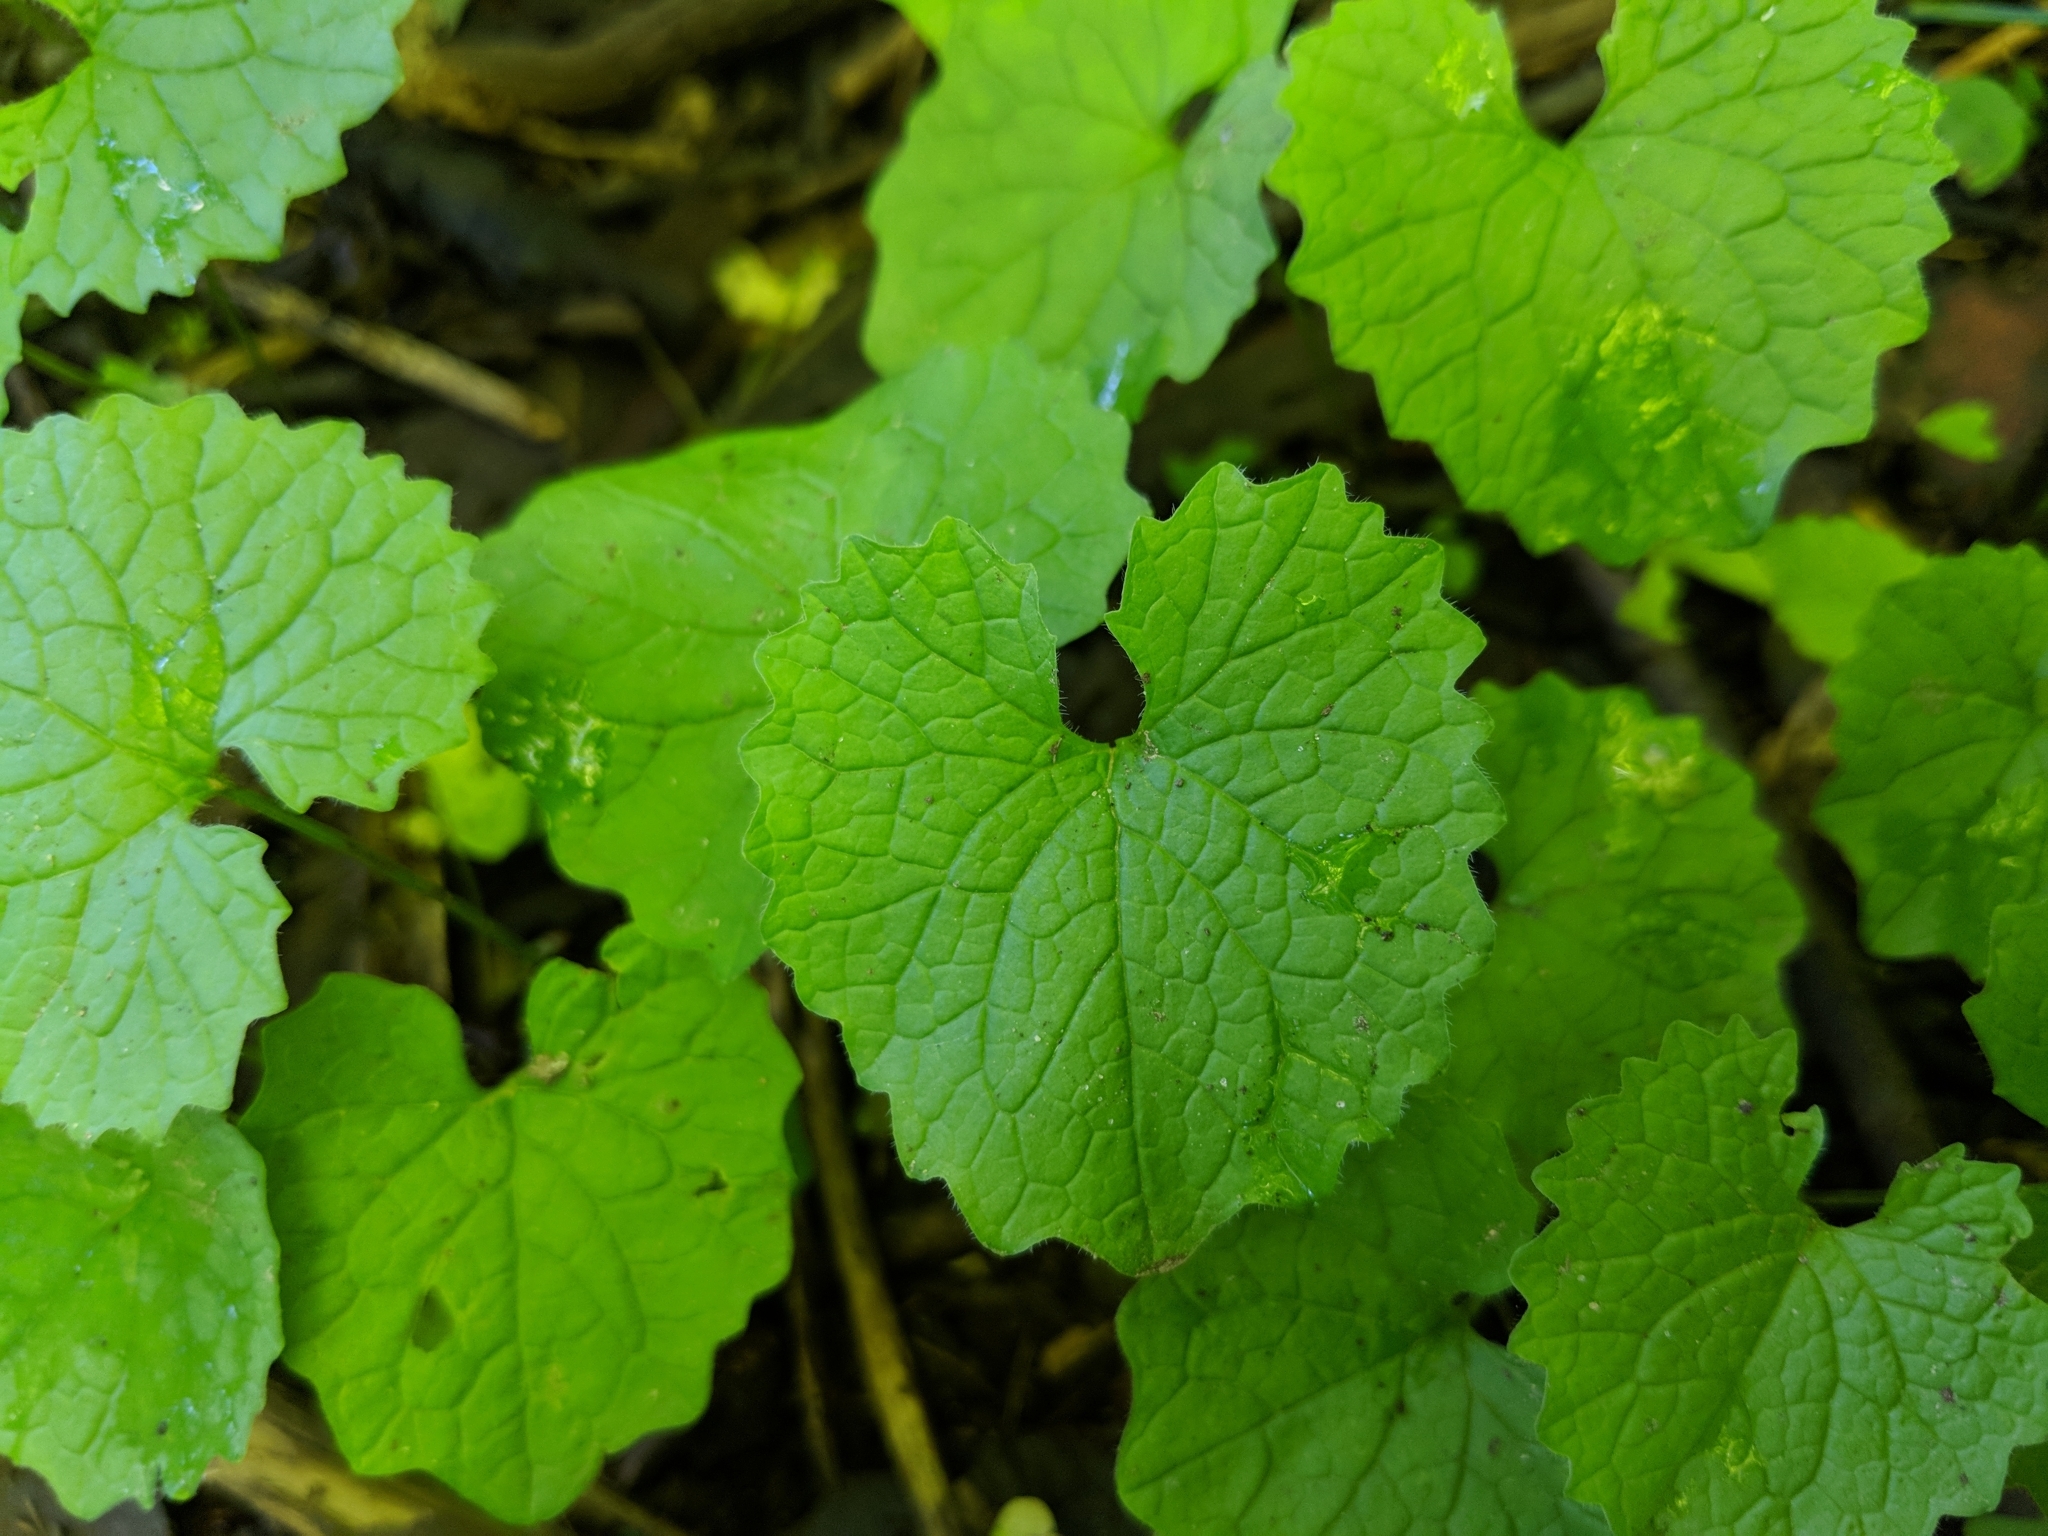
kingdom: Plantae
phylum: Tracheophyta
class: Magnoliopsida
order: Brassicales
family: Brassicaceae
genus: Alliaria
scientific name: Alliaria petiolata
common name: Garlic mustard
